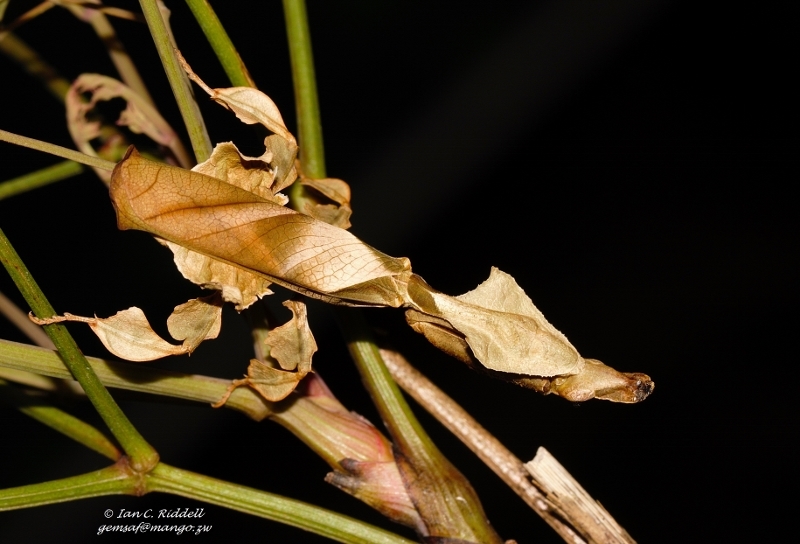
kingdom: Animalia
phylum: Arthropoda
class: Insecta
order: Mantodea
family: Hymenopodidae
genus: Phyllocrania
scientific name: Phyllocrania paradoxa
